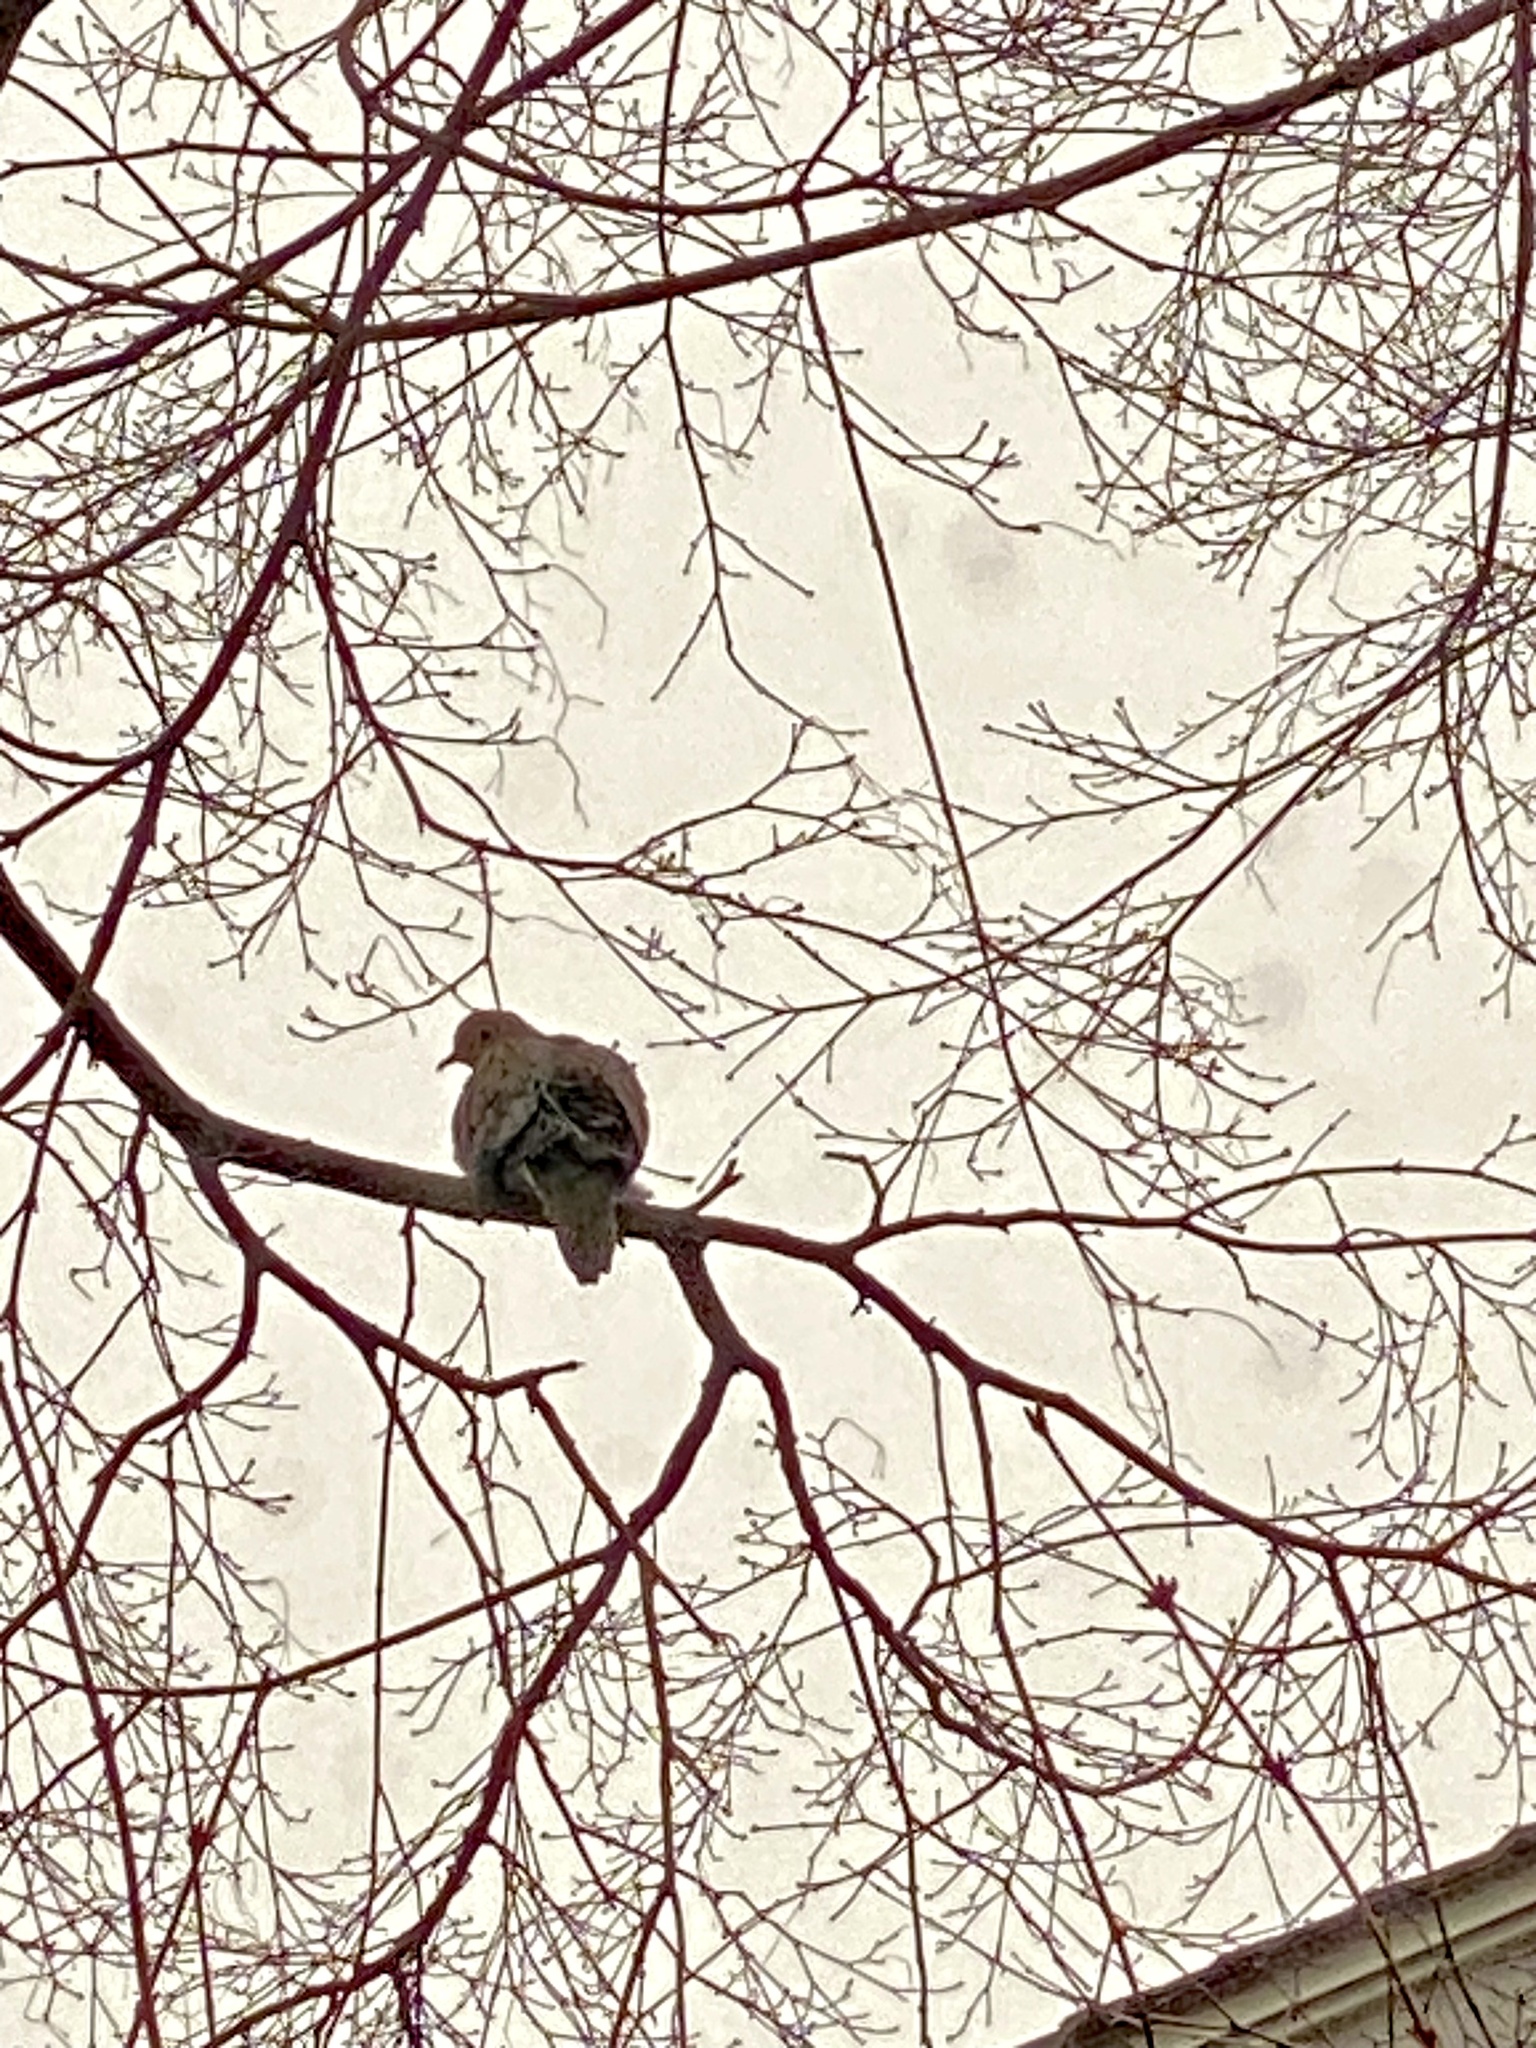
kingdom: Animalia
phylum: Chordata
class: Aves
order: Columbiformes
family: Columbidae
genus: Zenaida
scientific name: Zenaida macroura
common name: Mourning dove
